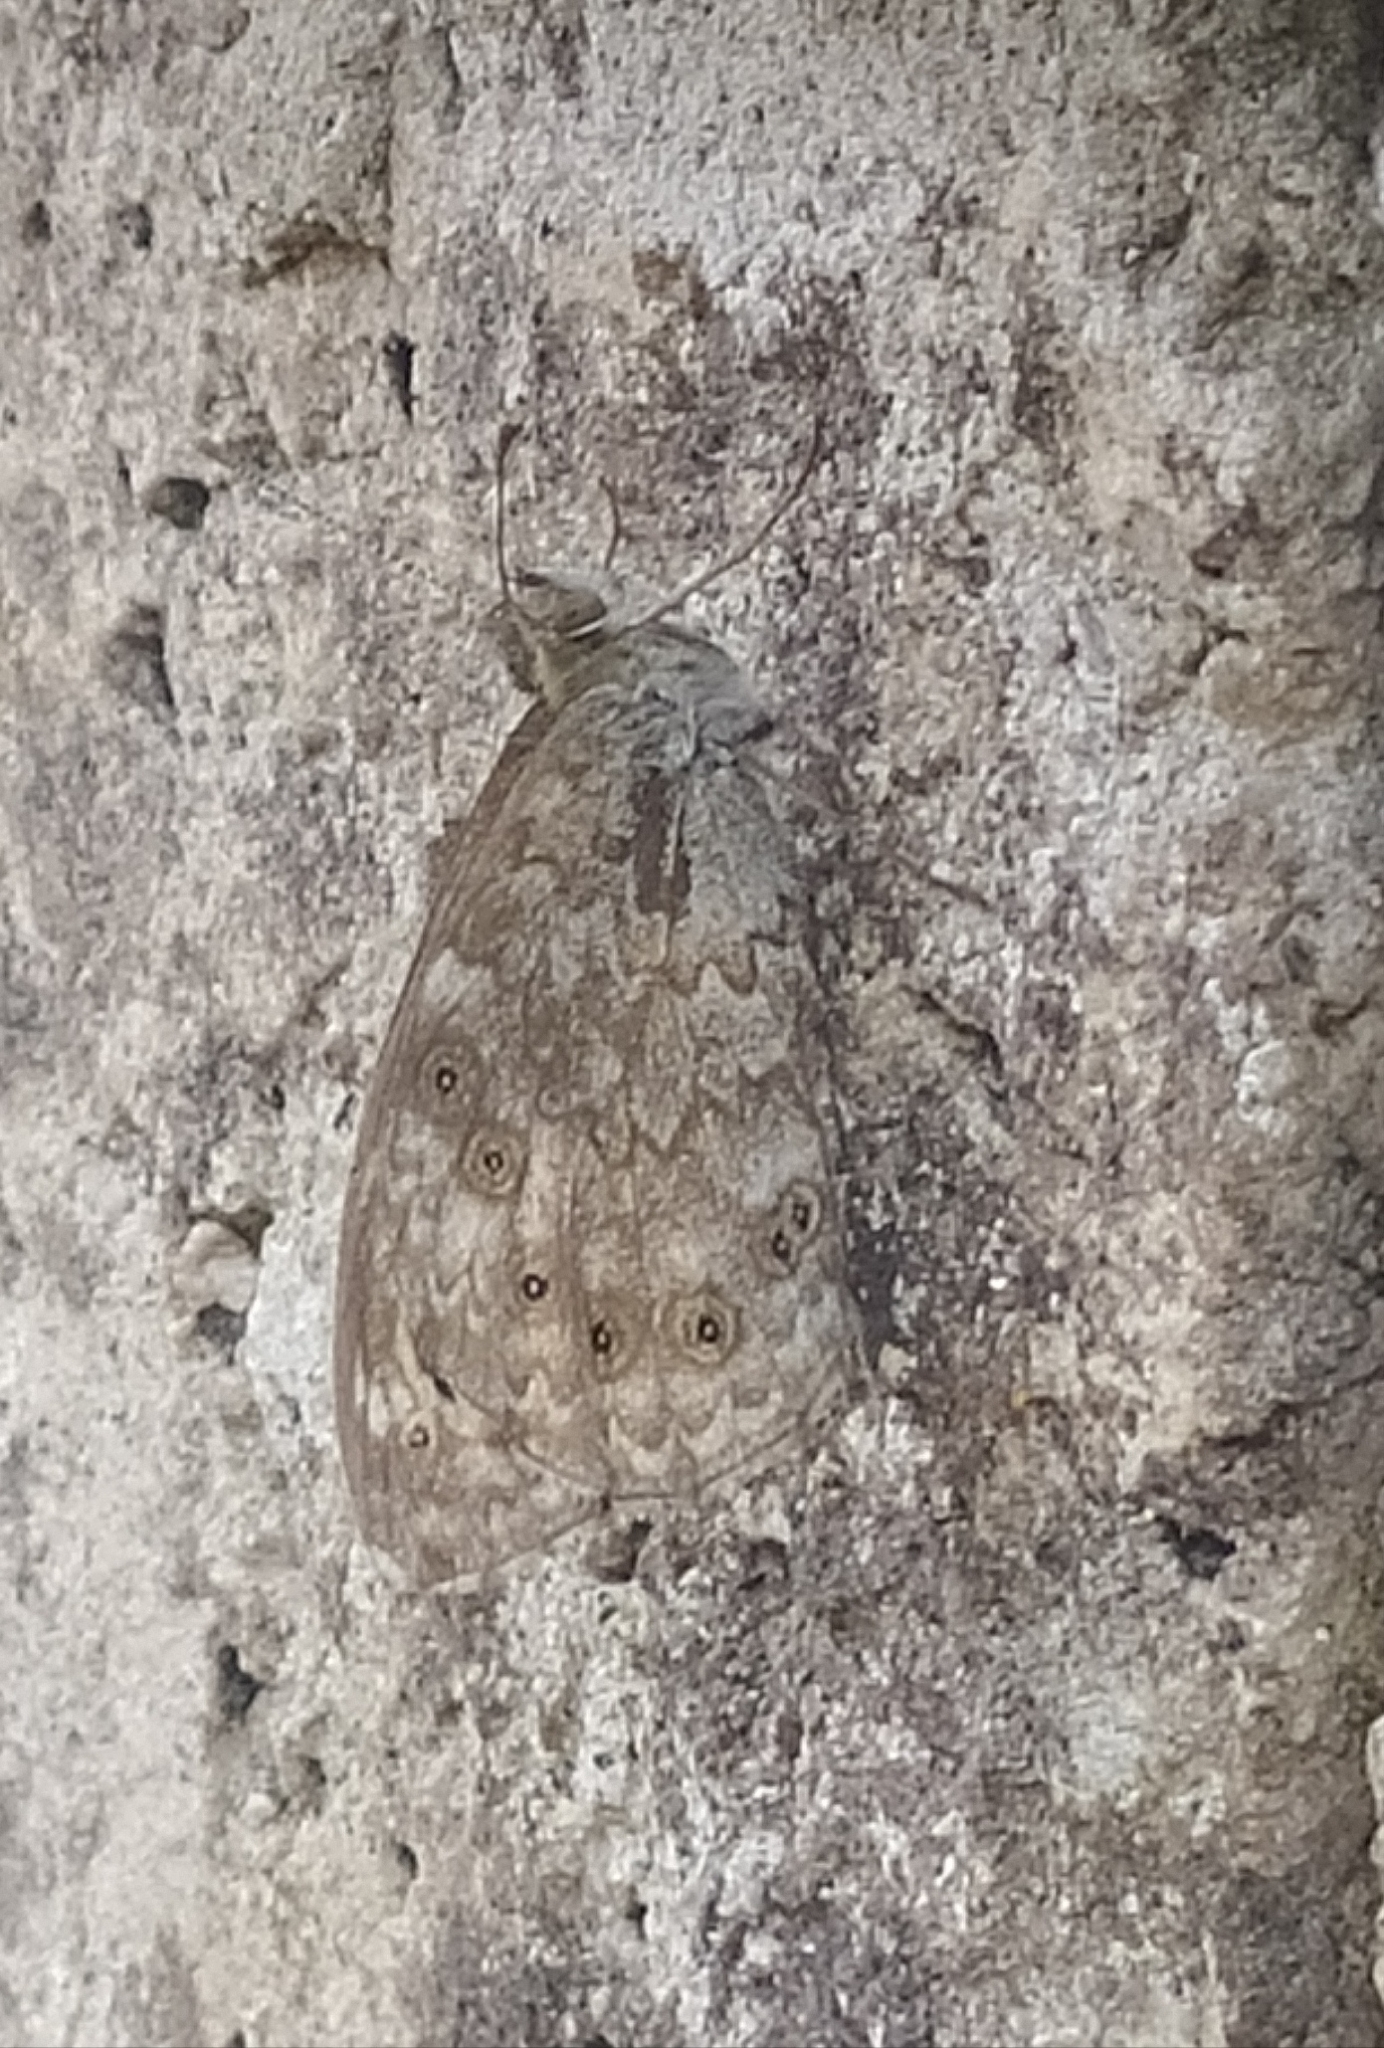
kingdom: Animalia
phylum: Arthropoda
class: Insecta
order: Lepidoptera
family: Nymphalidae
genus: Pararge
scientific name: Pararge Lasiommata megera
